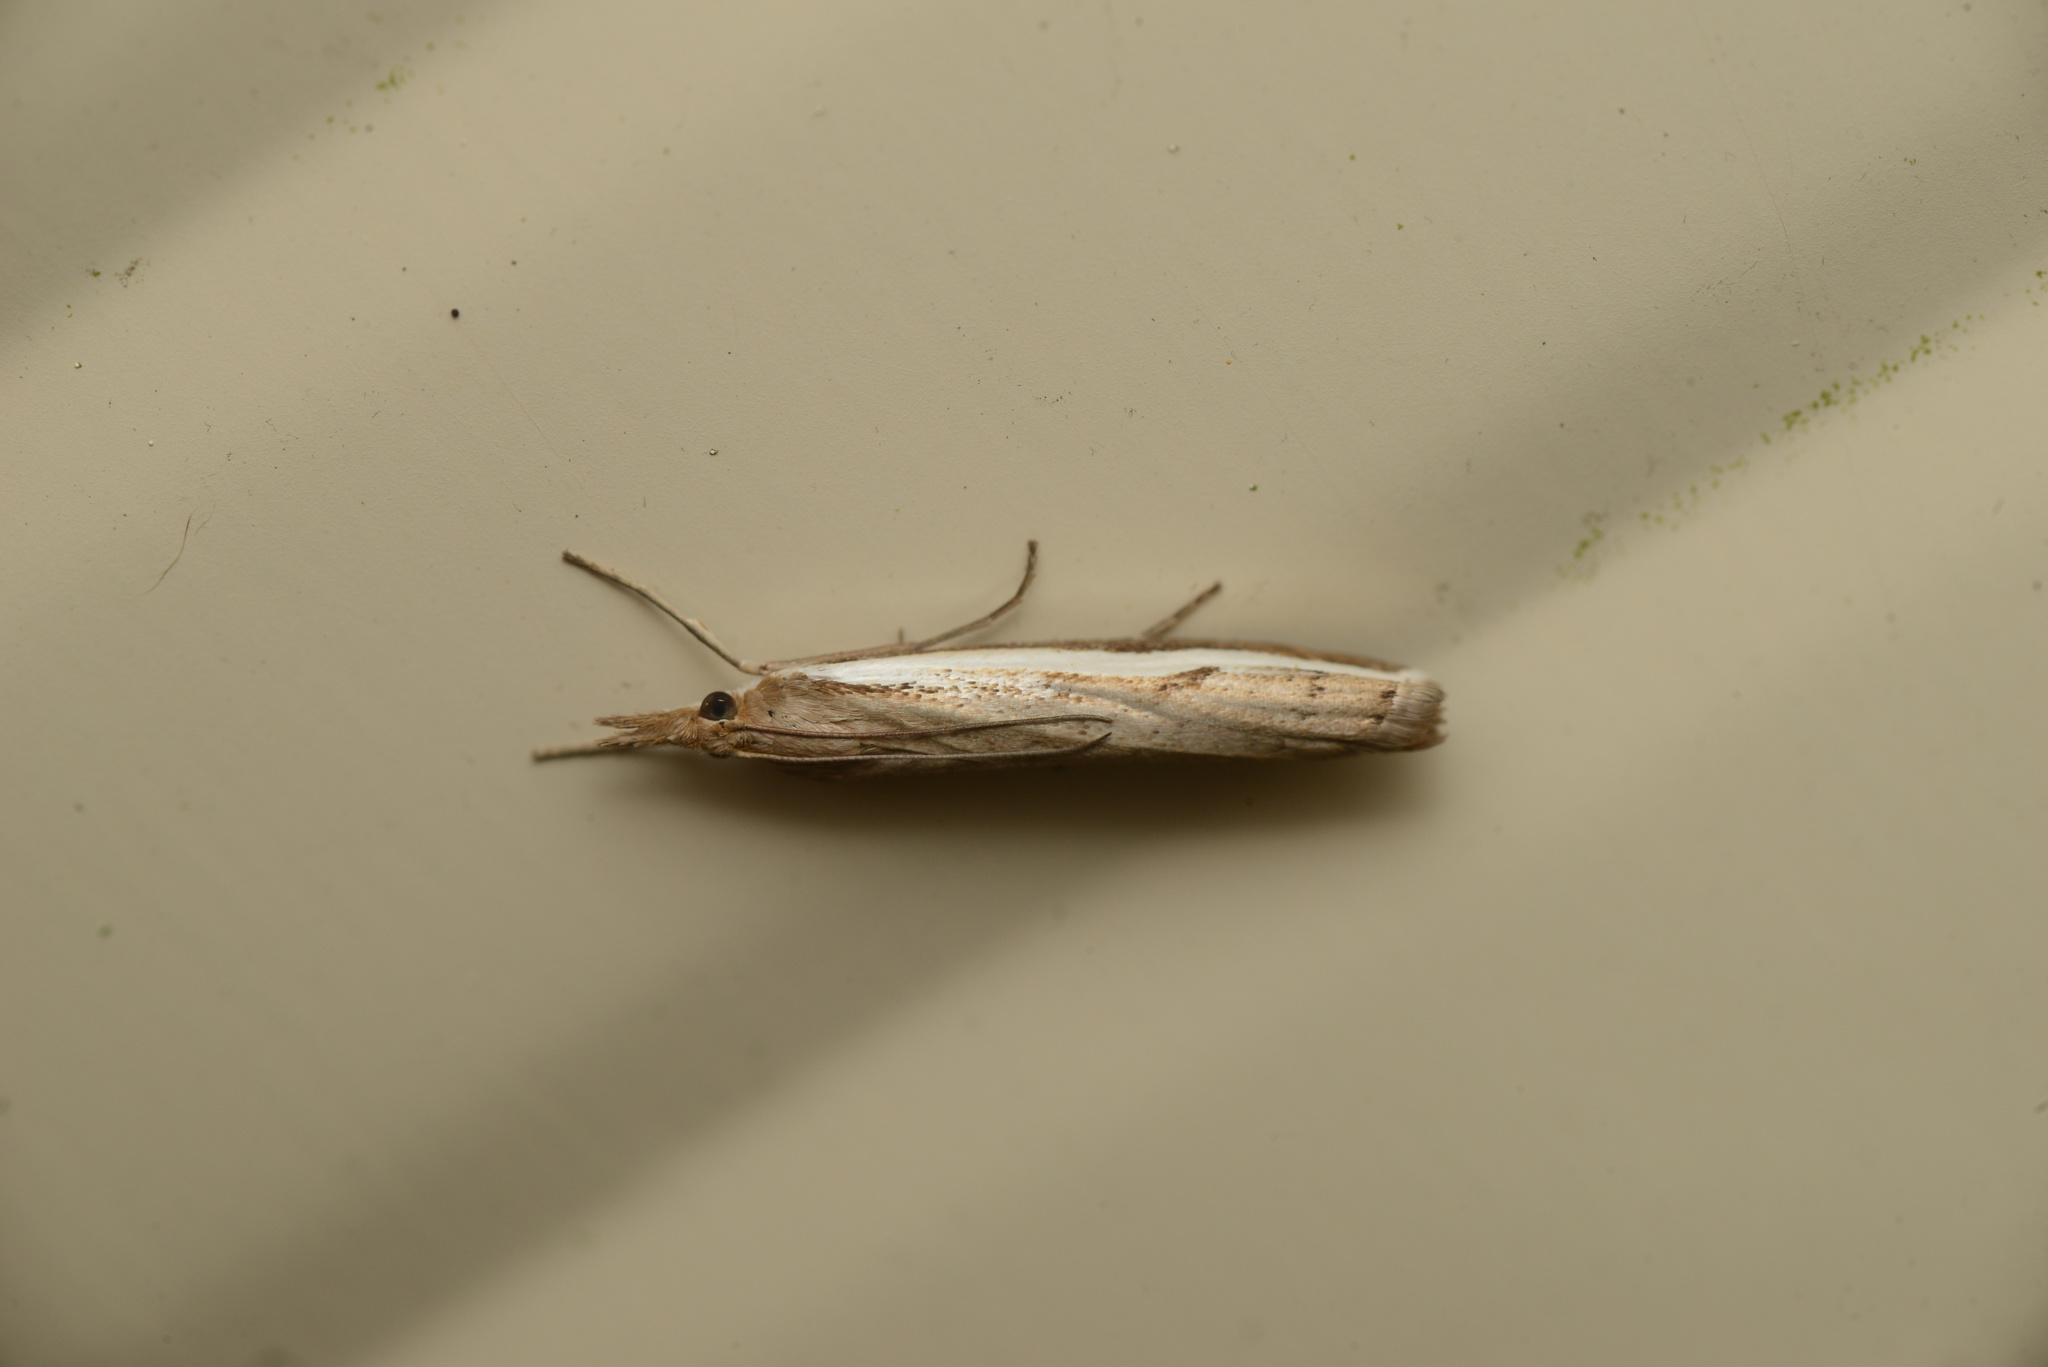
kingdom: Animalia
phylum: Arthropoda
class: Insecta
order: Lepidoptera
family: Crambidae
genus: Orocrambus
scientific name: Orocrambus flexuosellus
